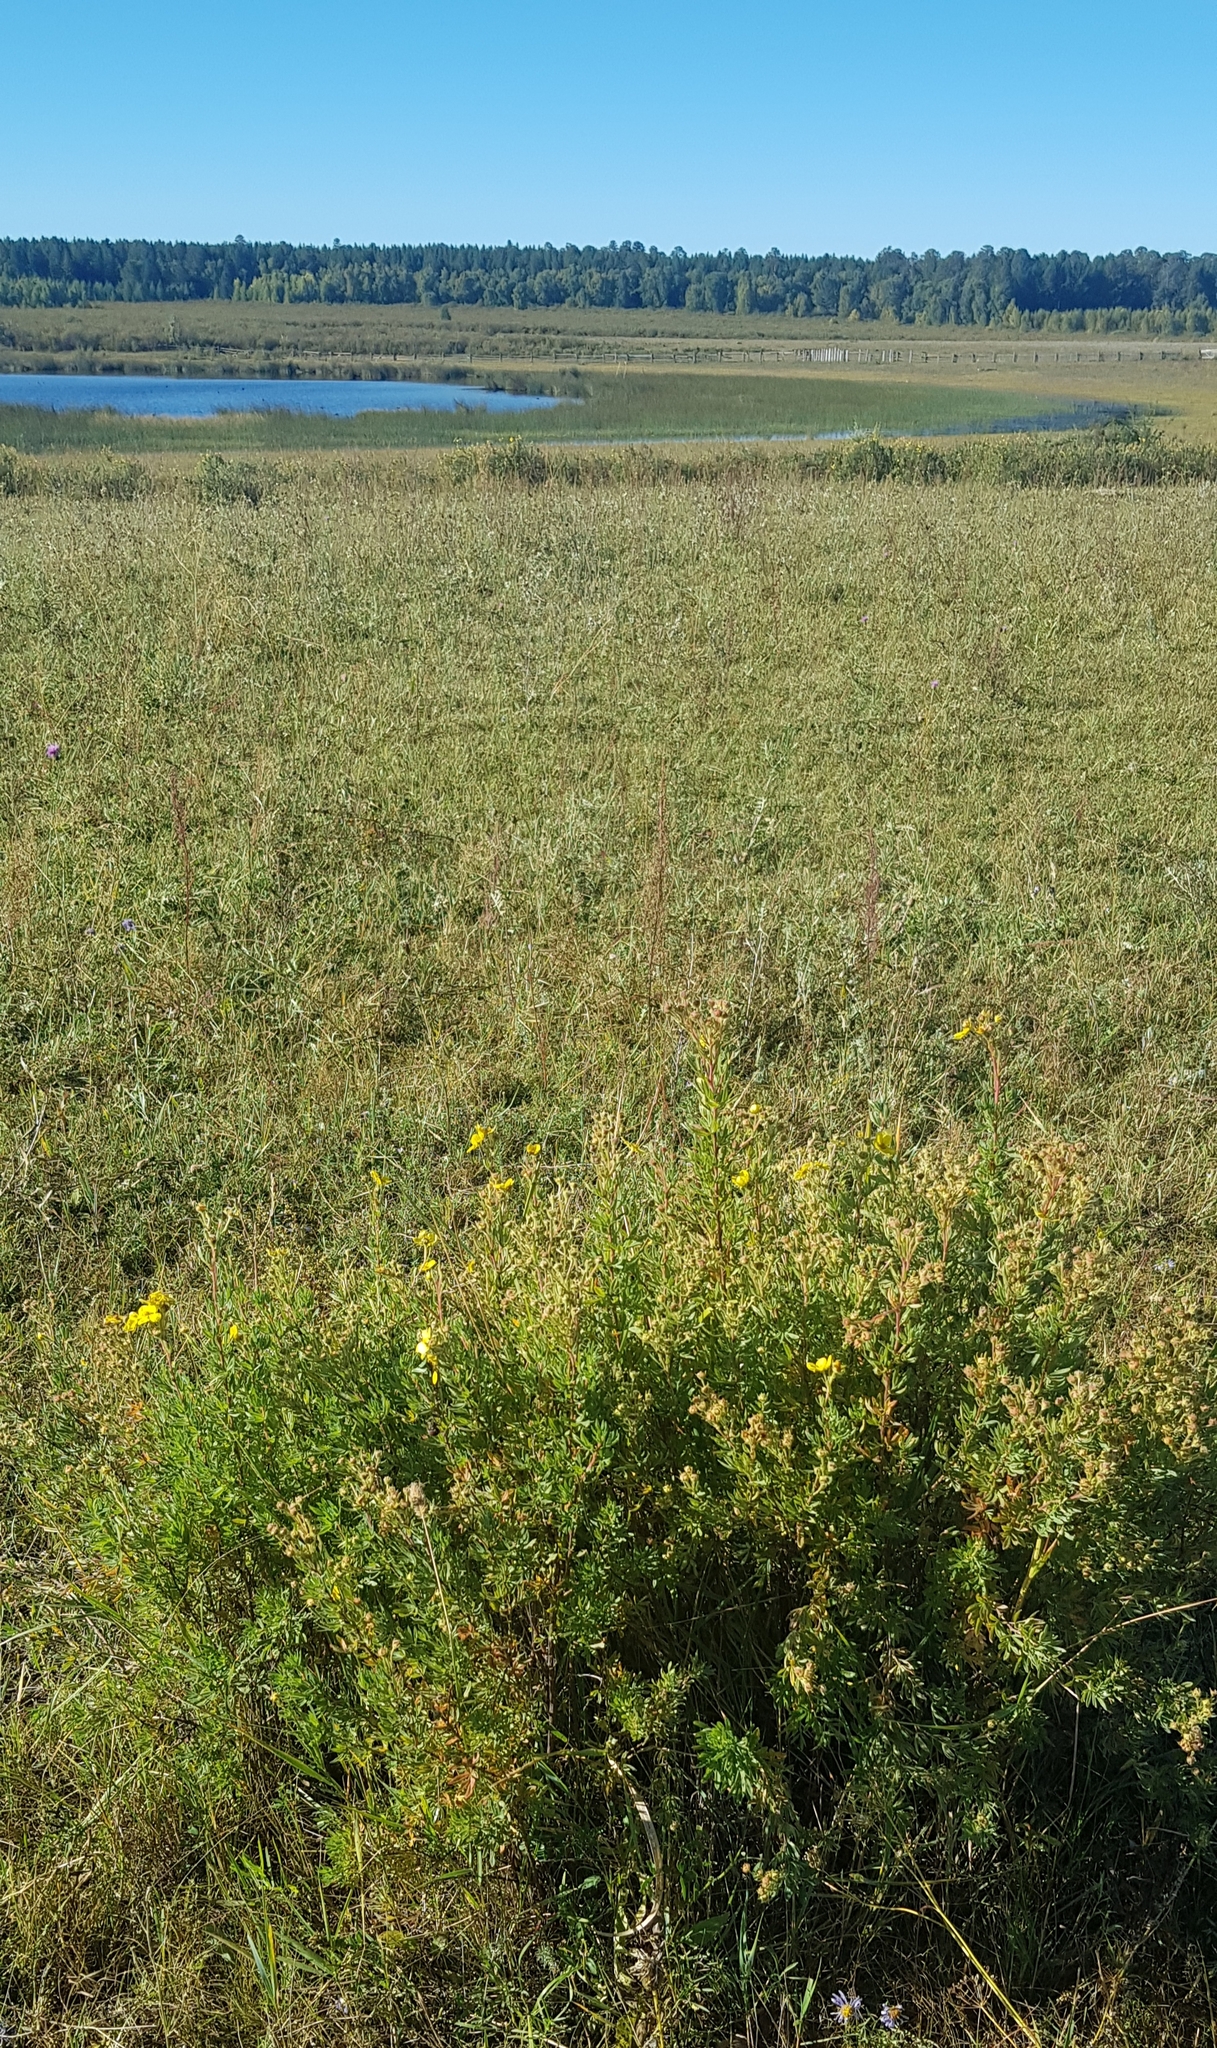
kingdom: Plantae
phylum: Tracheophyta
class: Magnoliopsida
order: Rosales
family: Rosaceae
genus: Dasiphora
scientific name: Dasiphora fruticosa
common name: Shrubby cinquefoil
